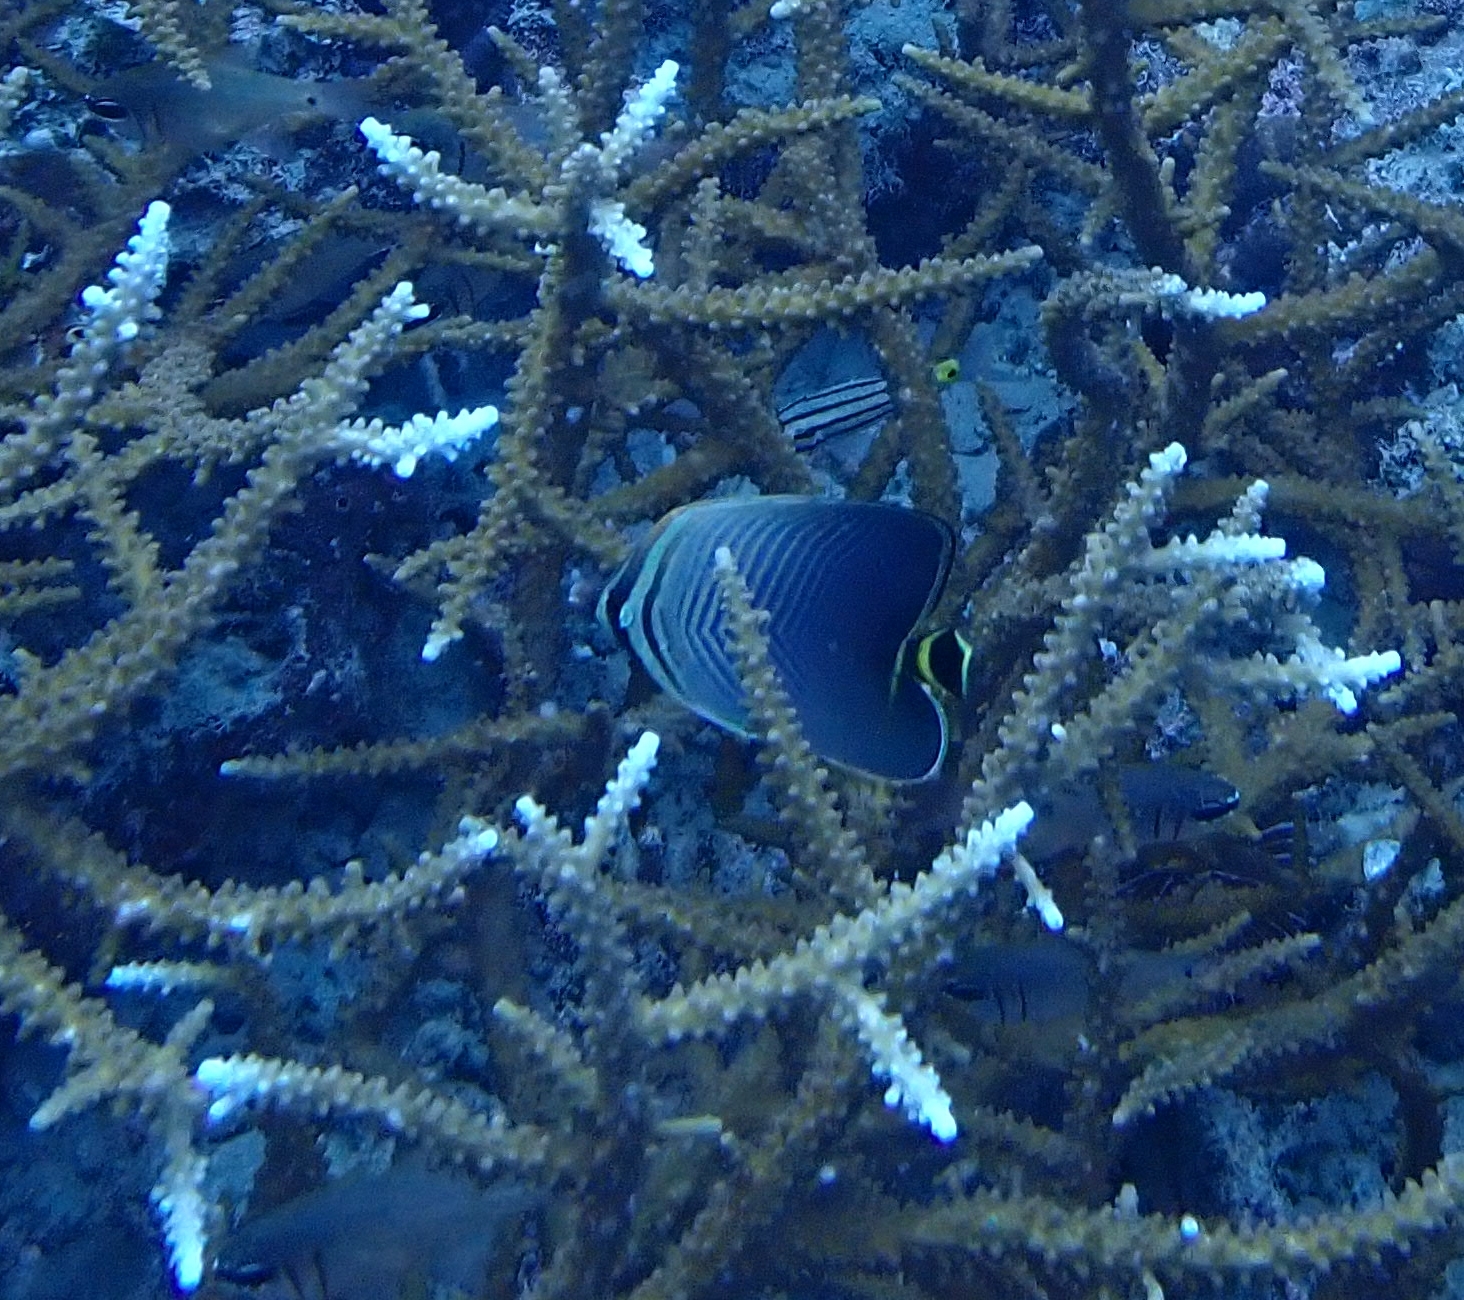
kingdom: Animalia
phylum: Chordata
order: Perciformes
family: Chaetodontidae
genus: Chaetodon
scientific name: Chaetodon triangulum
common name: Triangular butterflyfish
